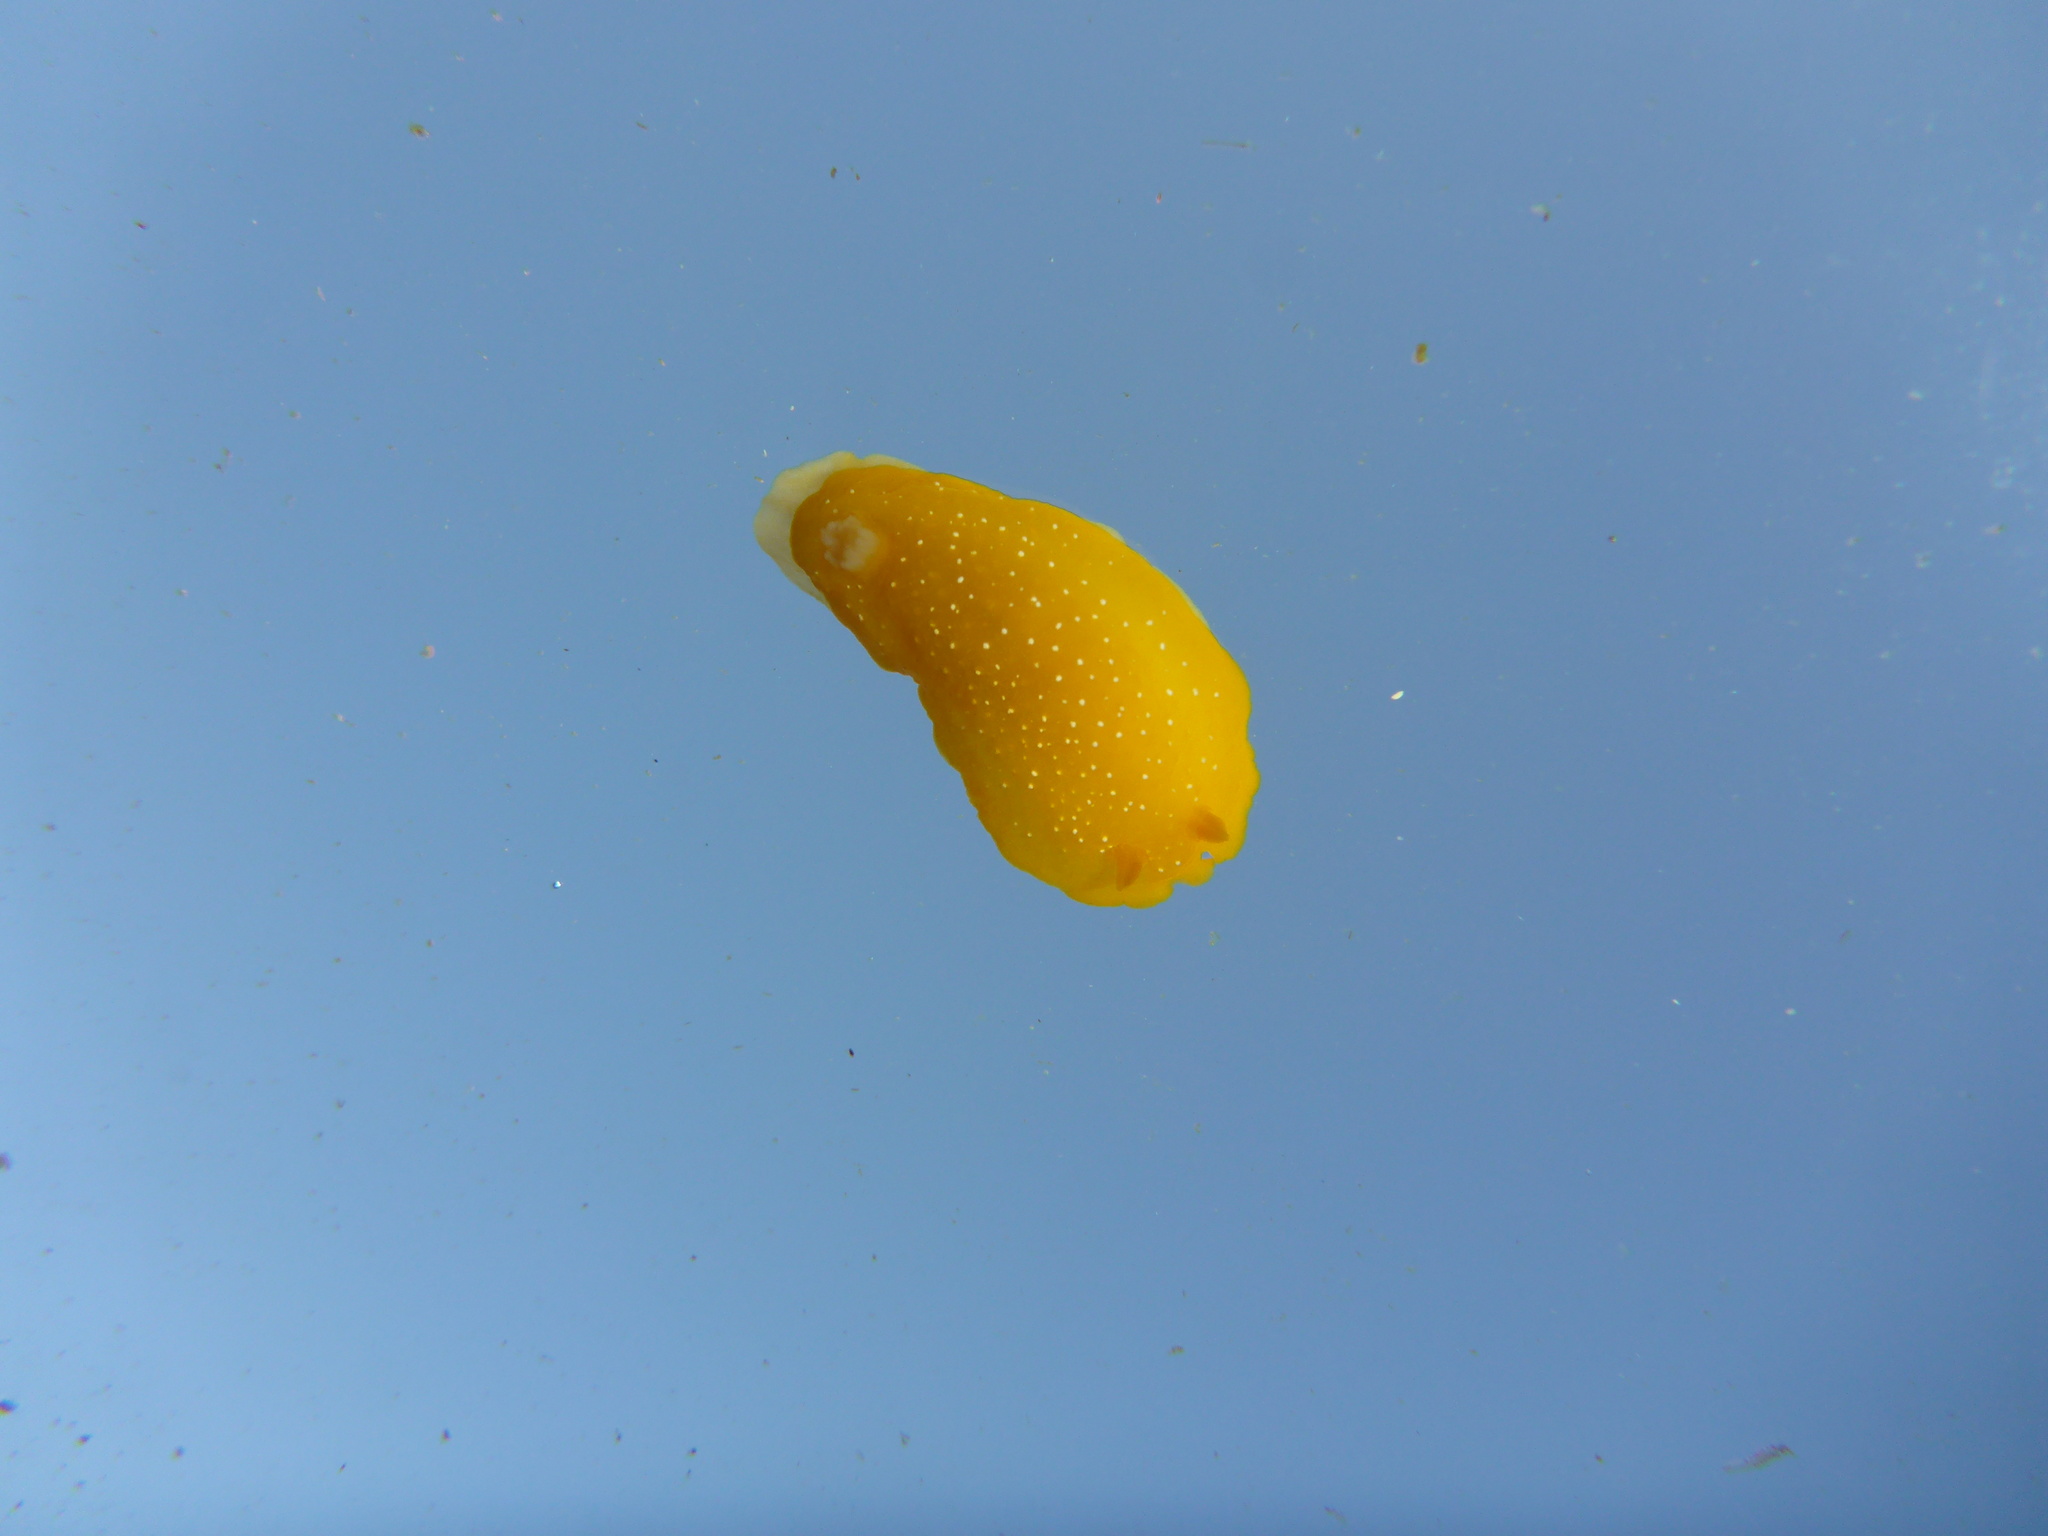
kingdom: Animalia
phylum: Mollusca
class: Gastropoda
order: Nudibranchia
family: Dendrodorididae
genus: Doriopsilla
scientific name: Doriopsilla fulva
